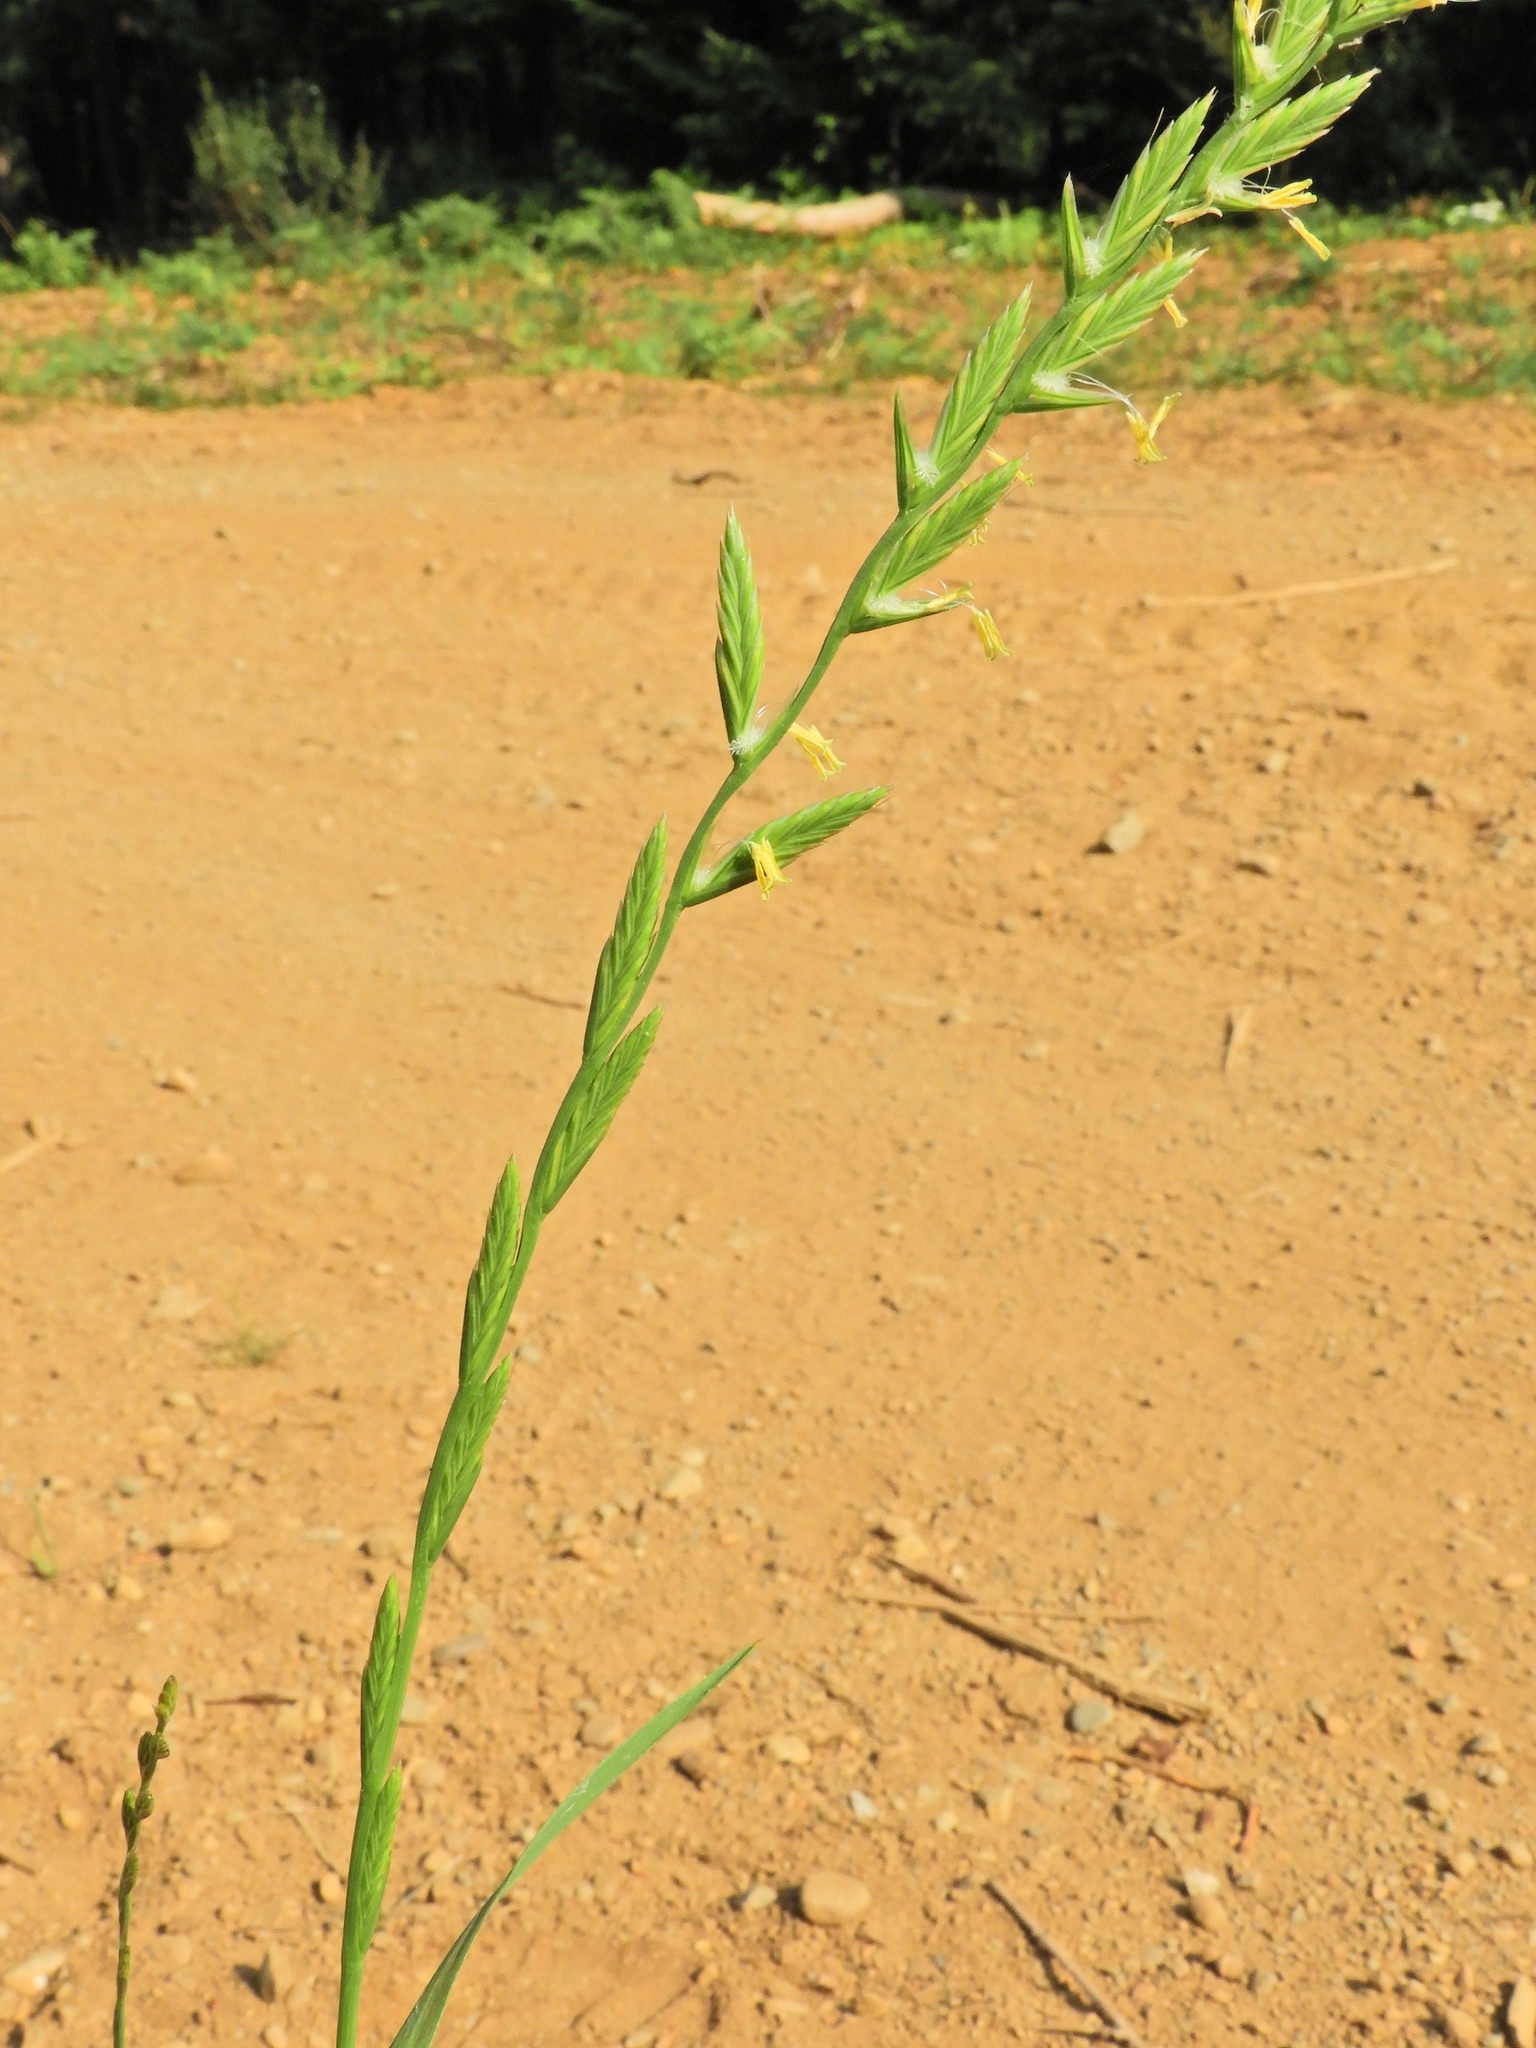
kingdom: Plantae
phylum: Tracheophyta
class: Liliopsida
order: Poales
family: Poaceae
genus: Lolium
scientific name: Lolium perenne
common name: Perennial ryegrass
